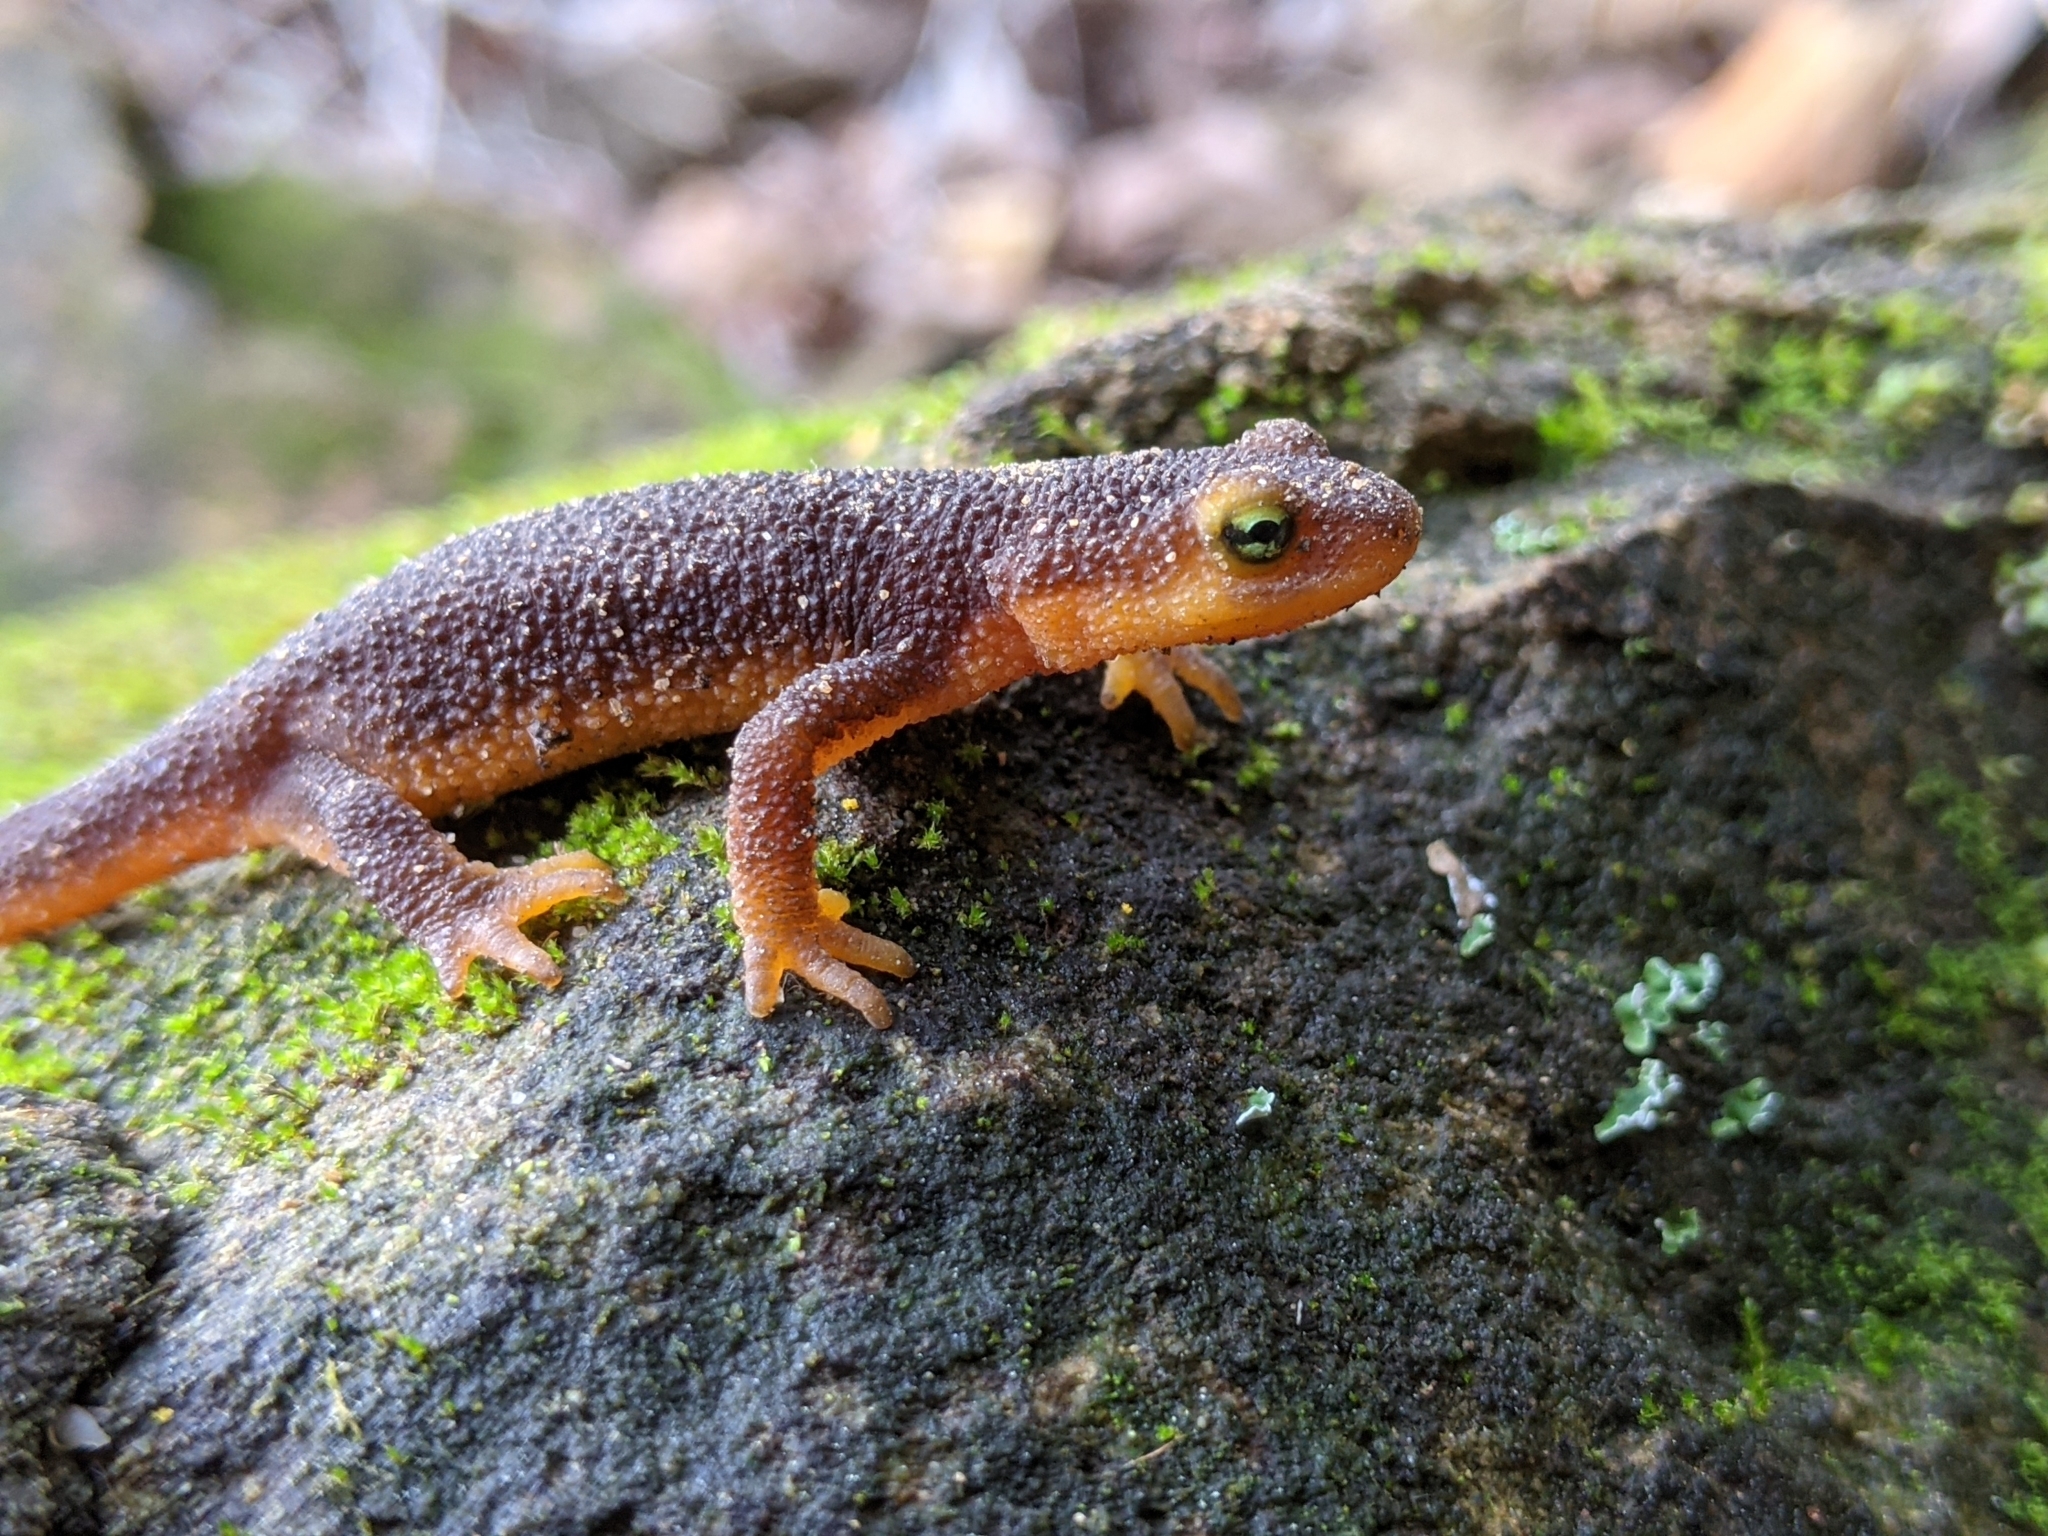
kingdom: Animalia
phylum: Chordata
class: Amphibia
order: Caudata
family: Salamandridae
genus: Taricha
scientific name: Taricha torosa
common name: California newt
